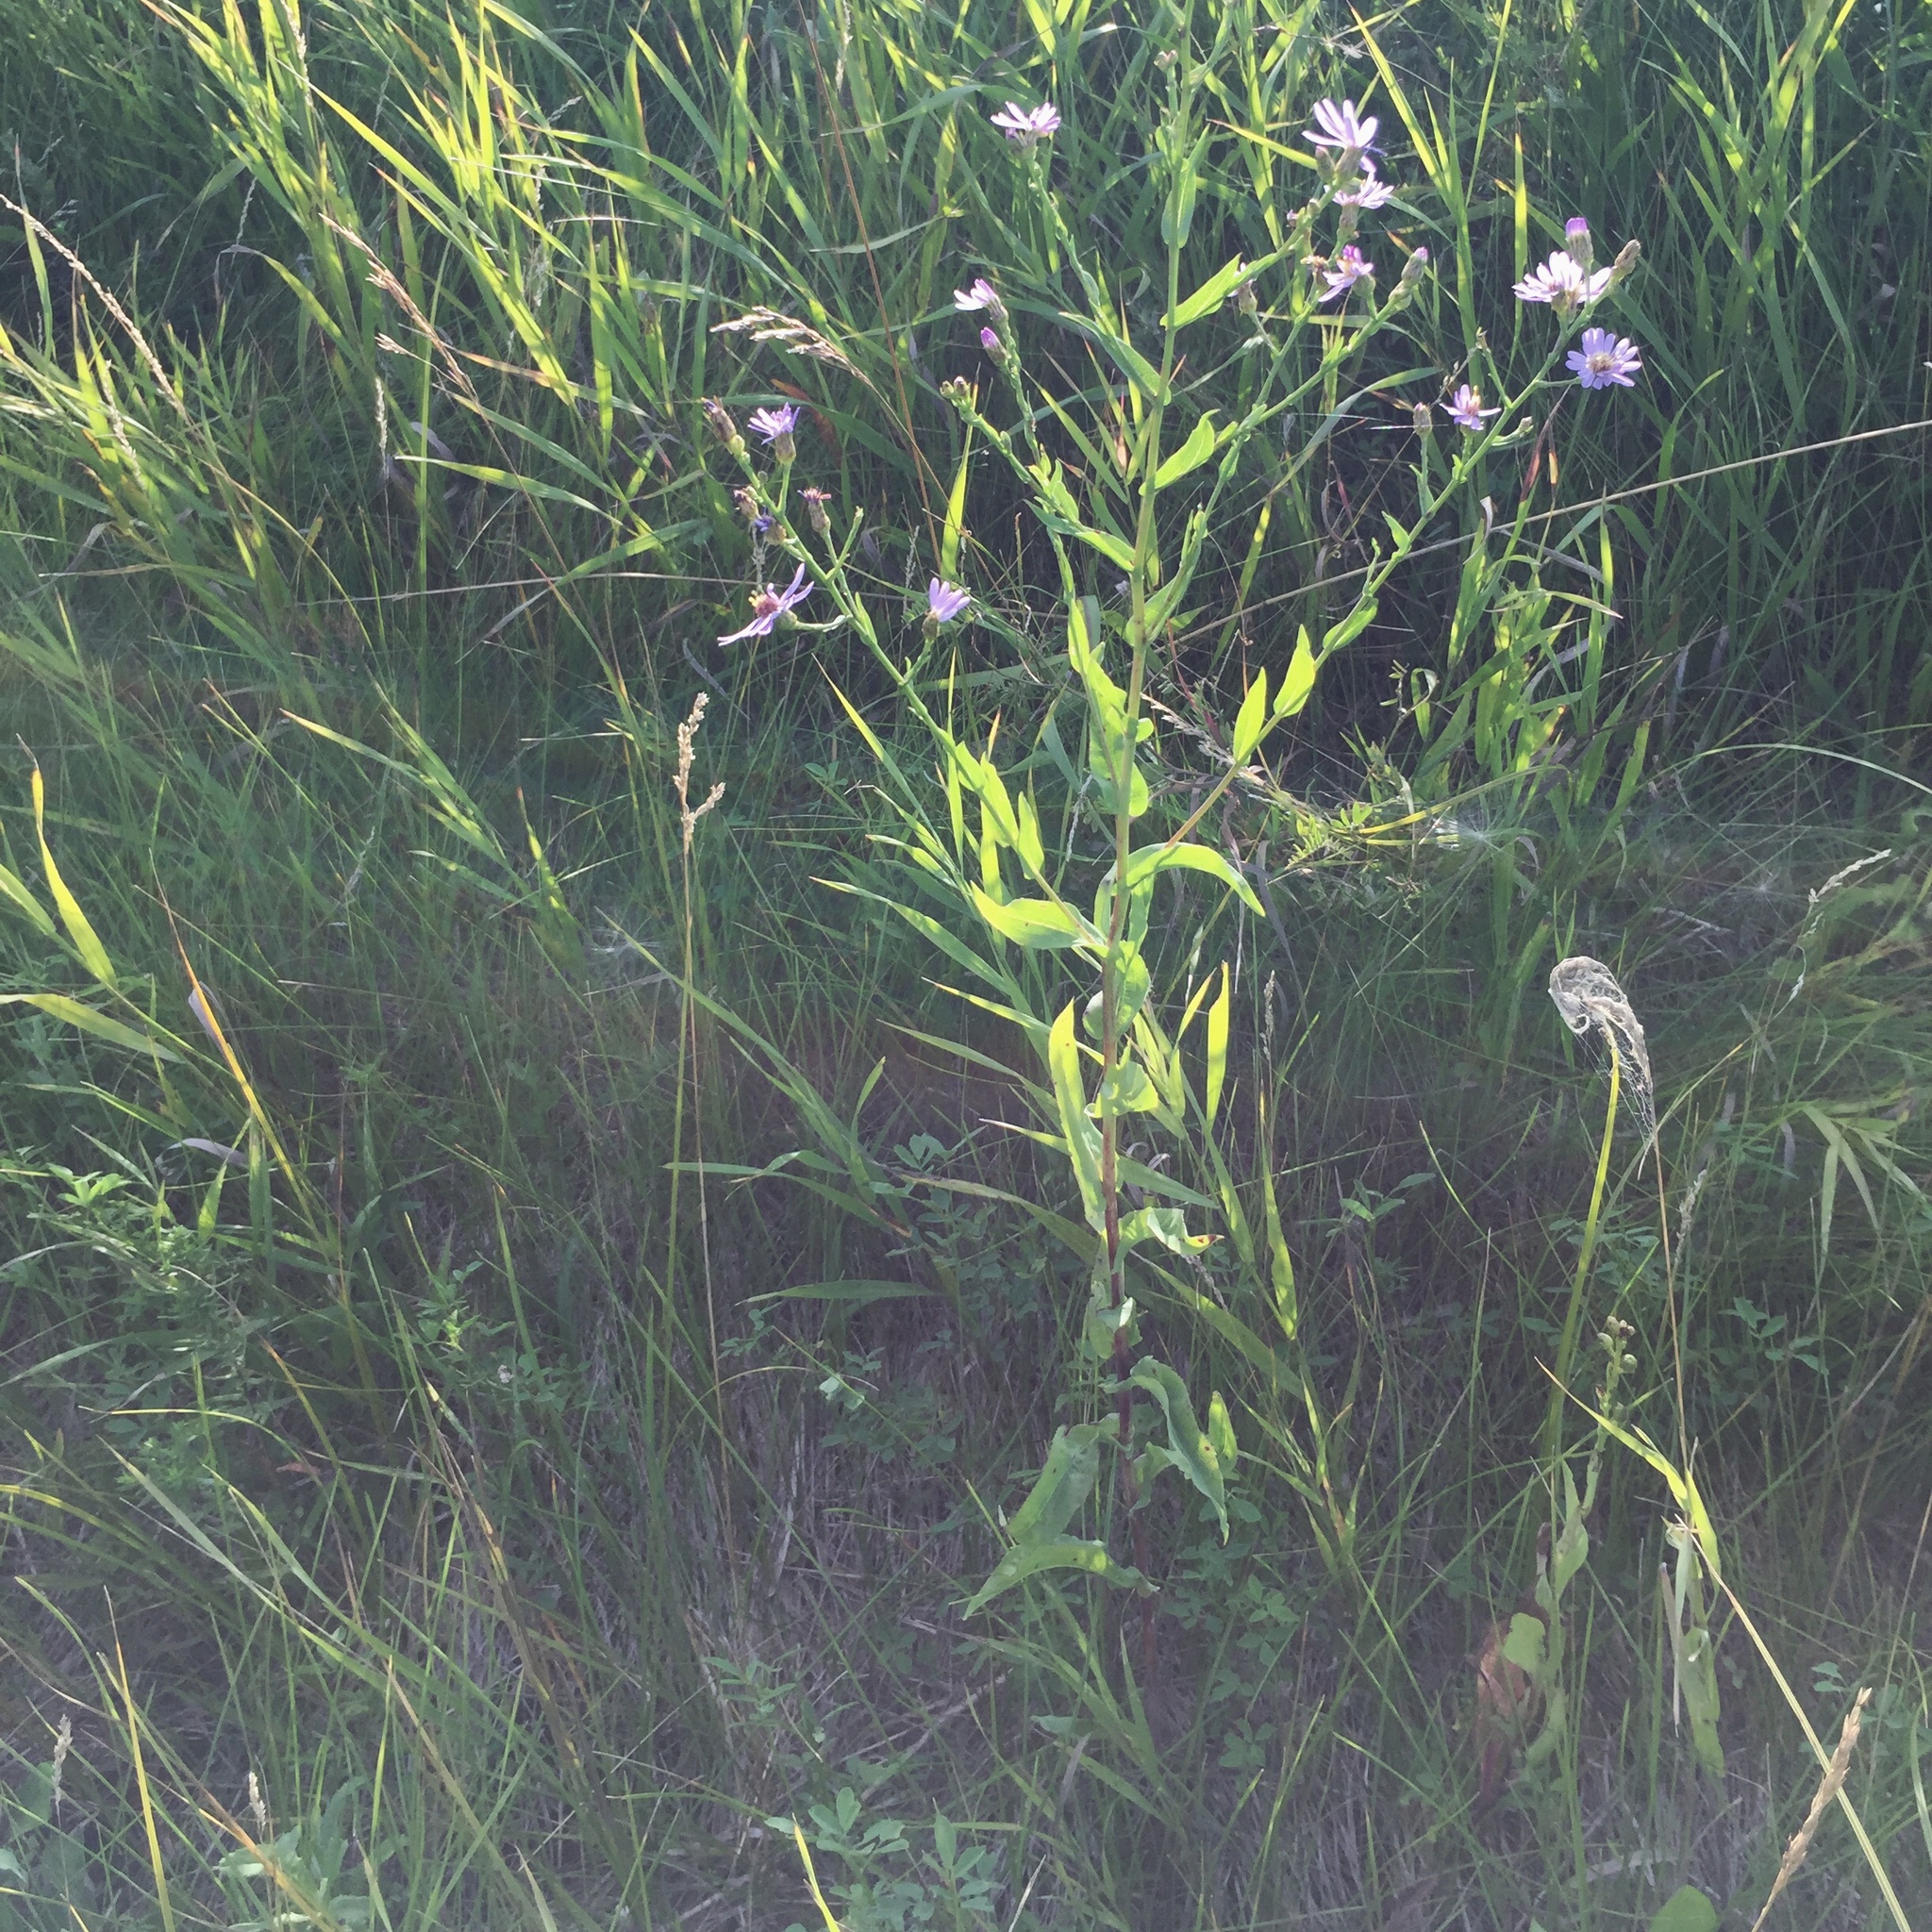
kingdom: Plantae
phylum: Tracheophyta
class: Magnoliopsida
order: Asterales
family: Asteraceae
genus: Symphyotrichum
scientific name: Symphyotrichum laeve
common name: Glaucous aster
